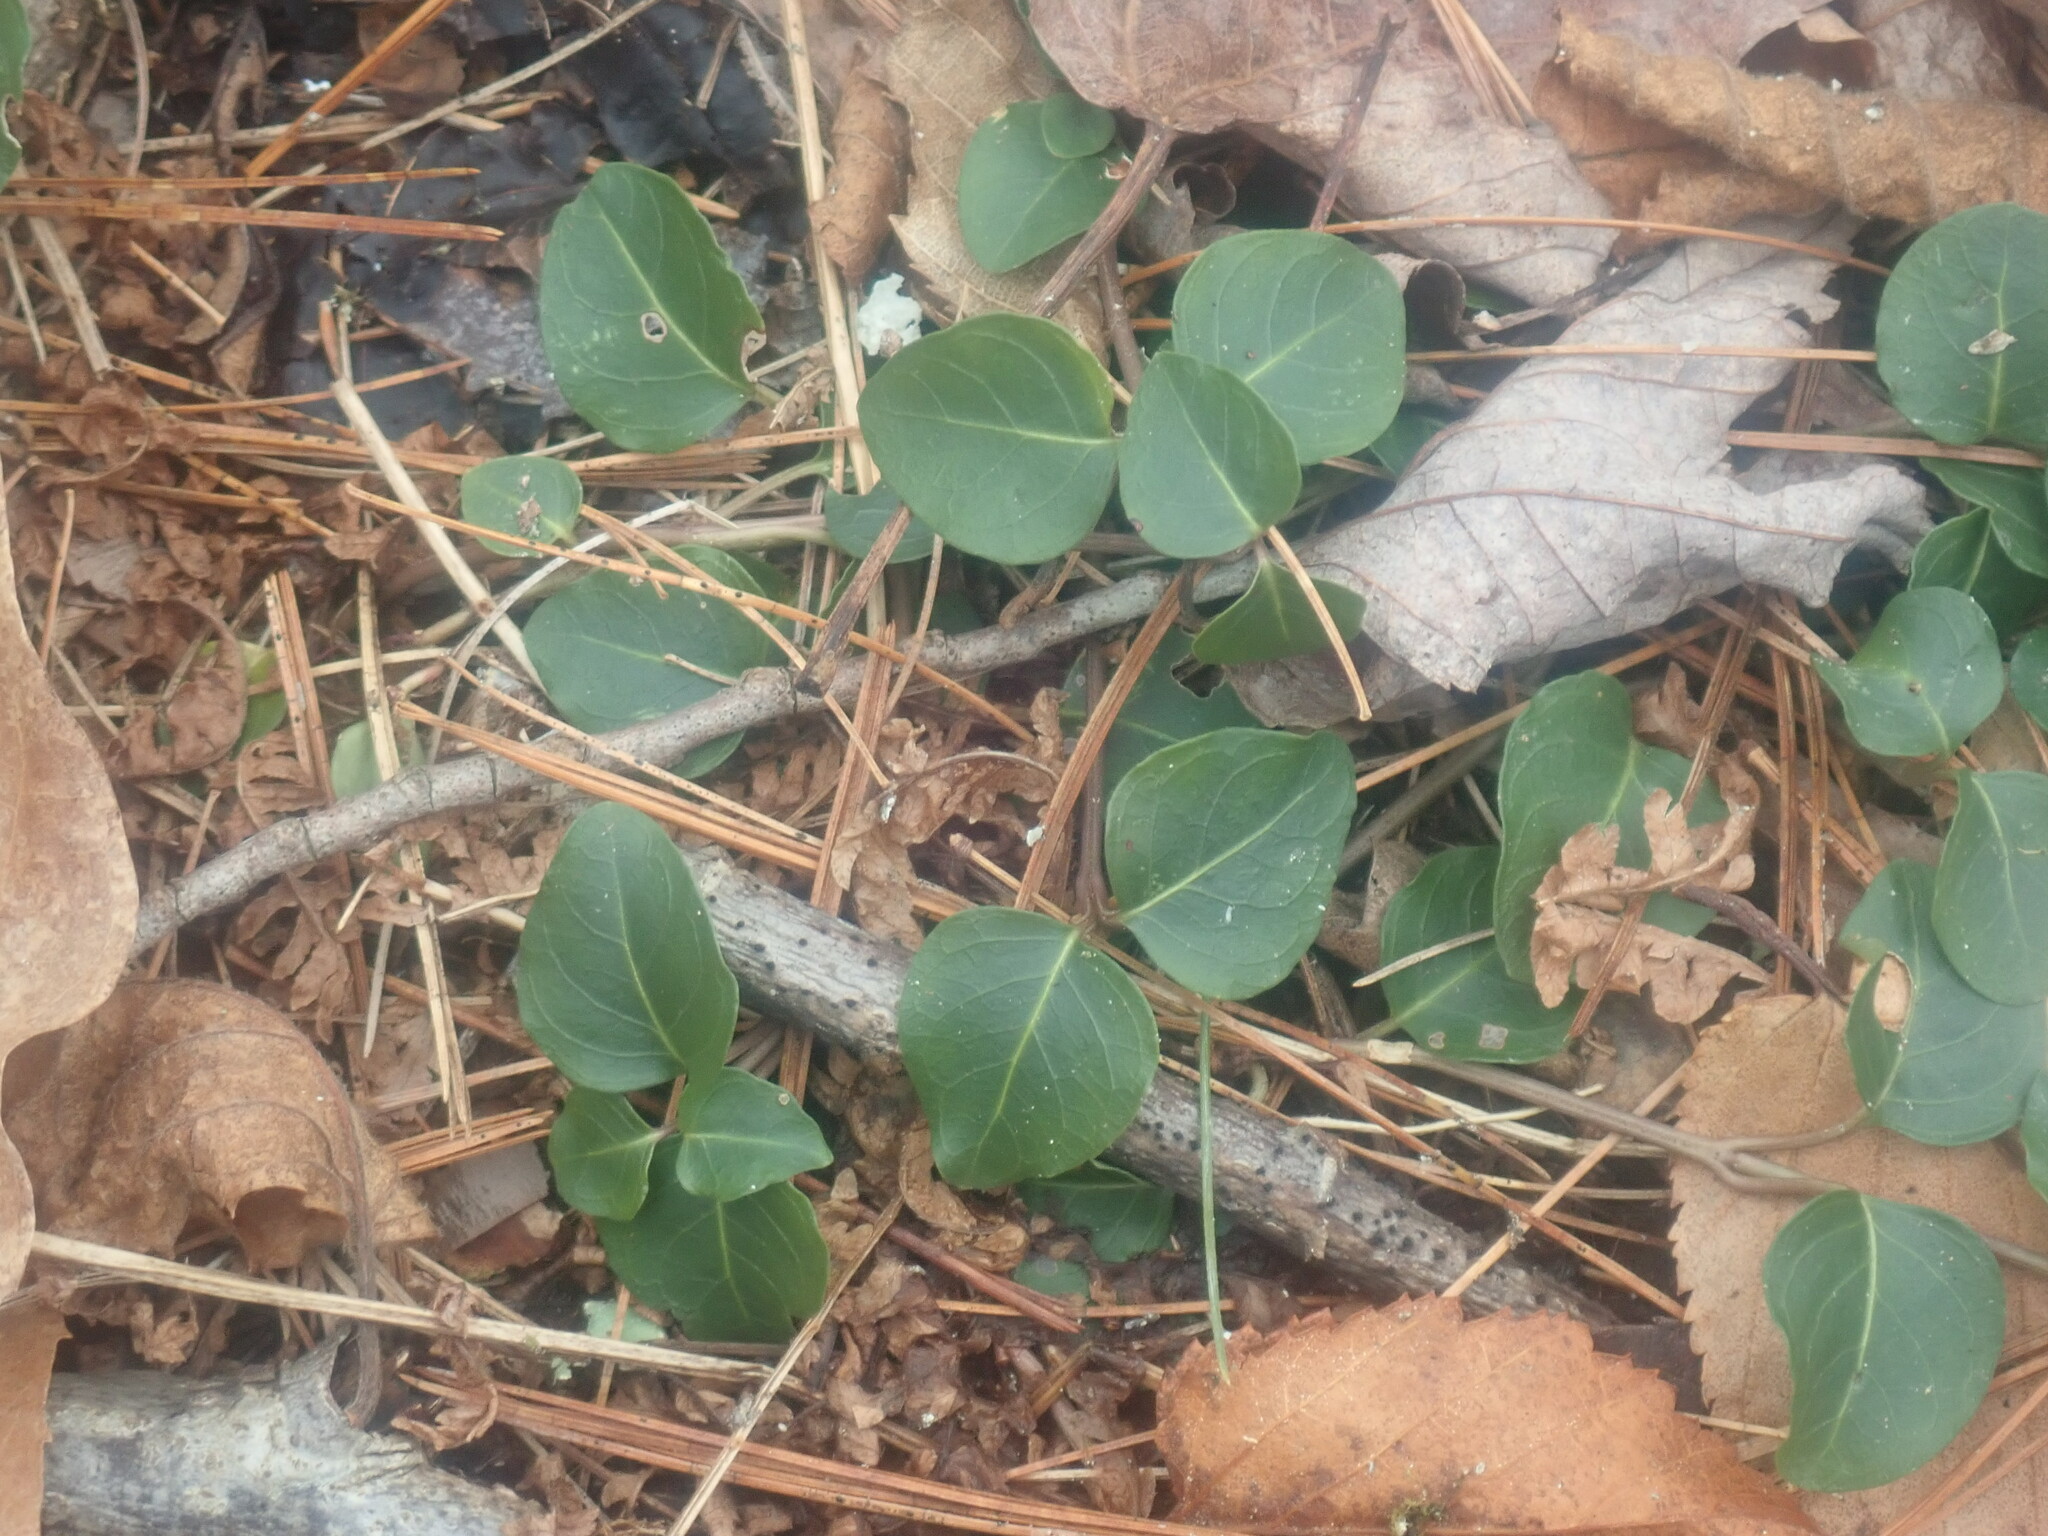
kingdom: Plantae
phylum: Tracheophyta
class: Magnoliopsida
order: Gentianales
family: Rubiaceae
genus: Mitchella
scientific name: Mitchella repens
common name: Partridge-berry
